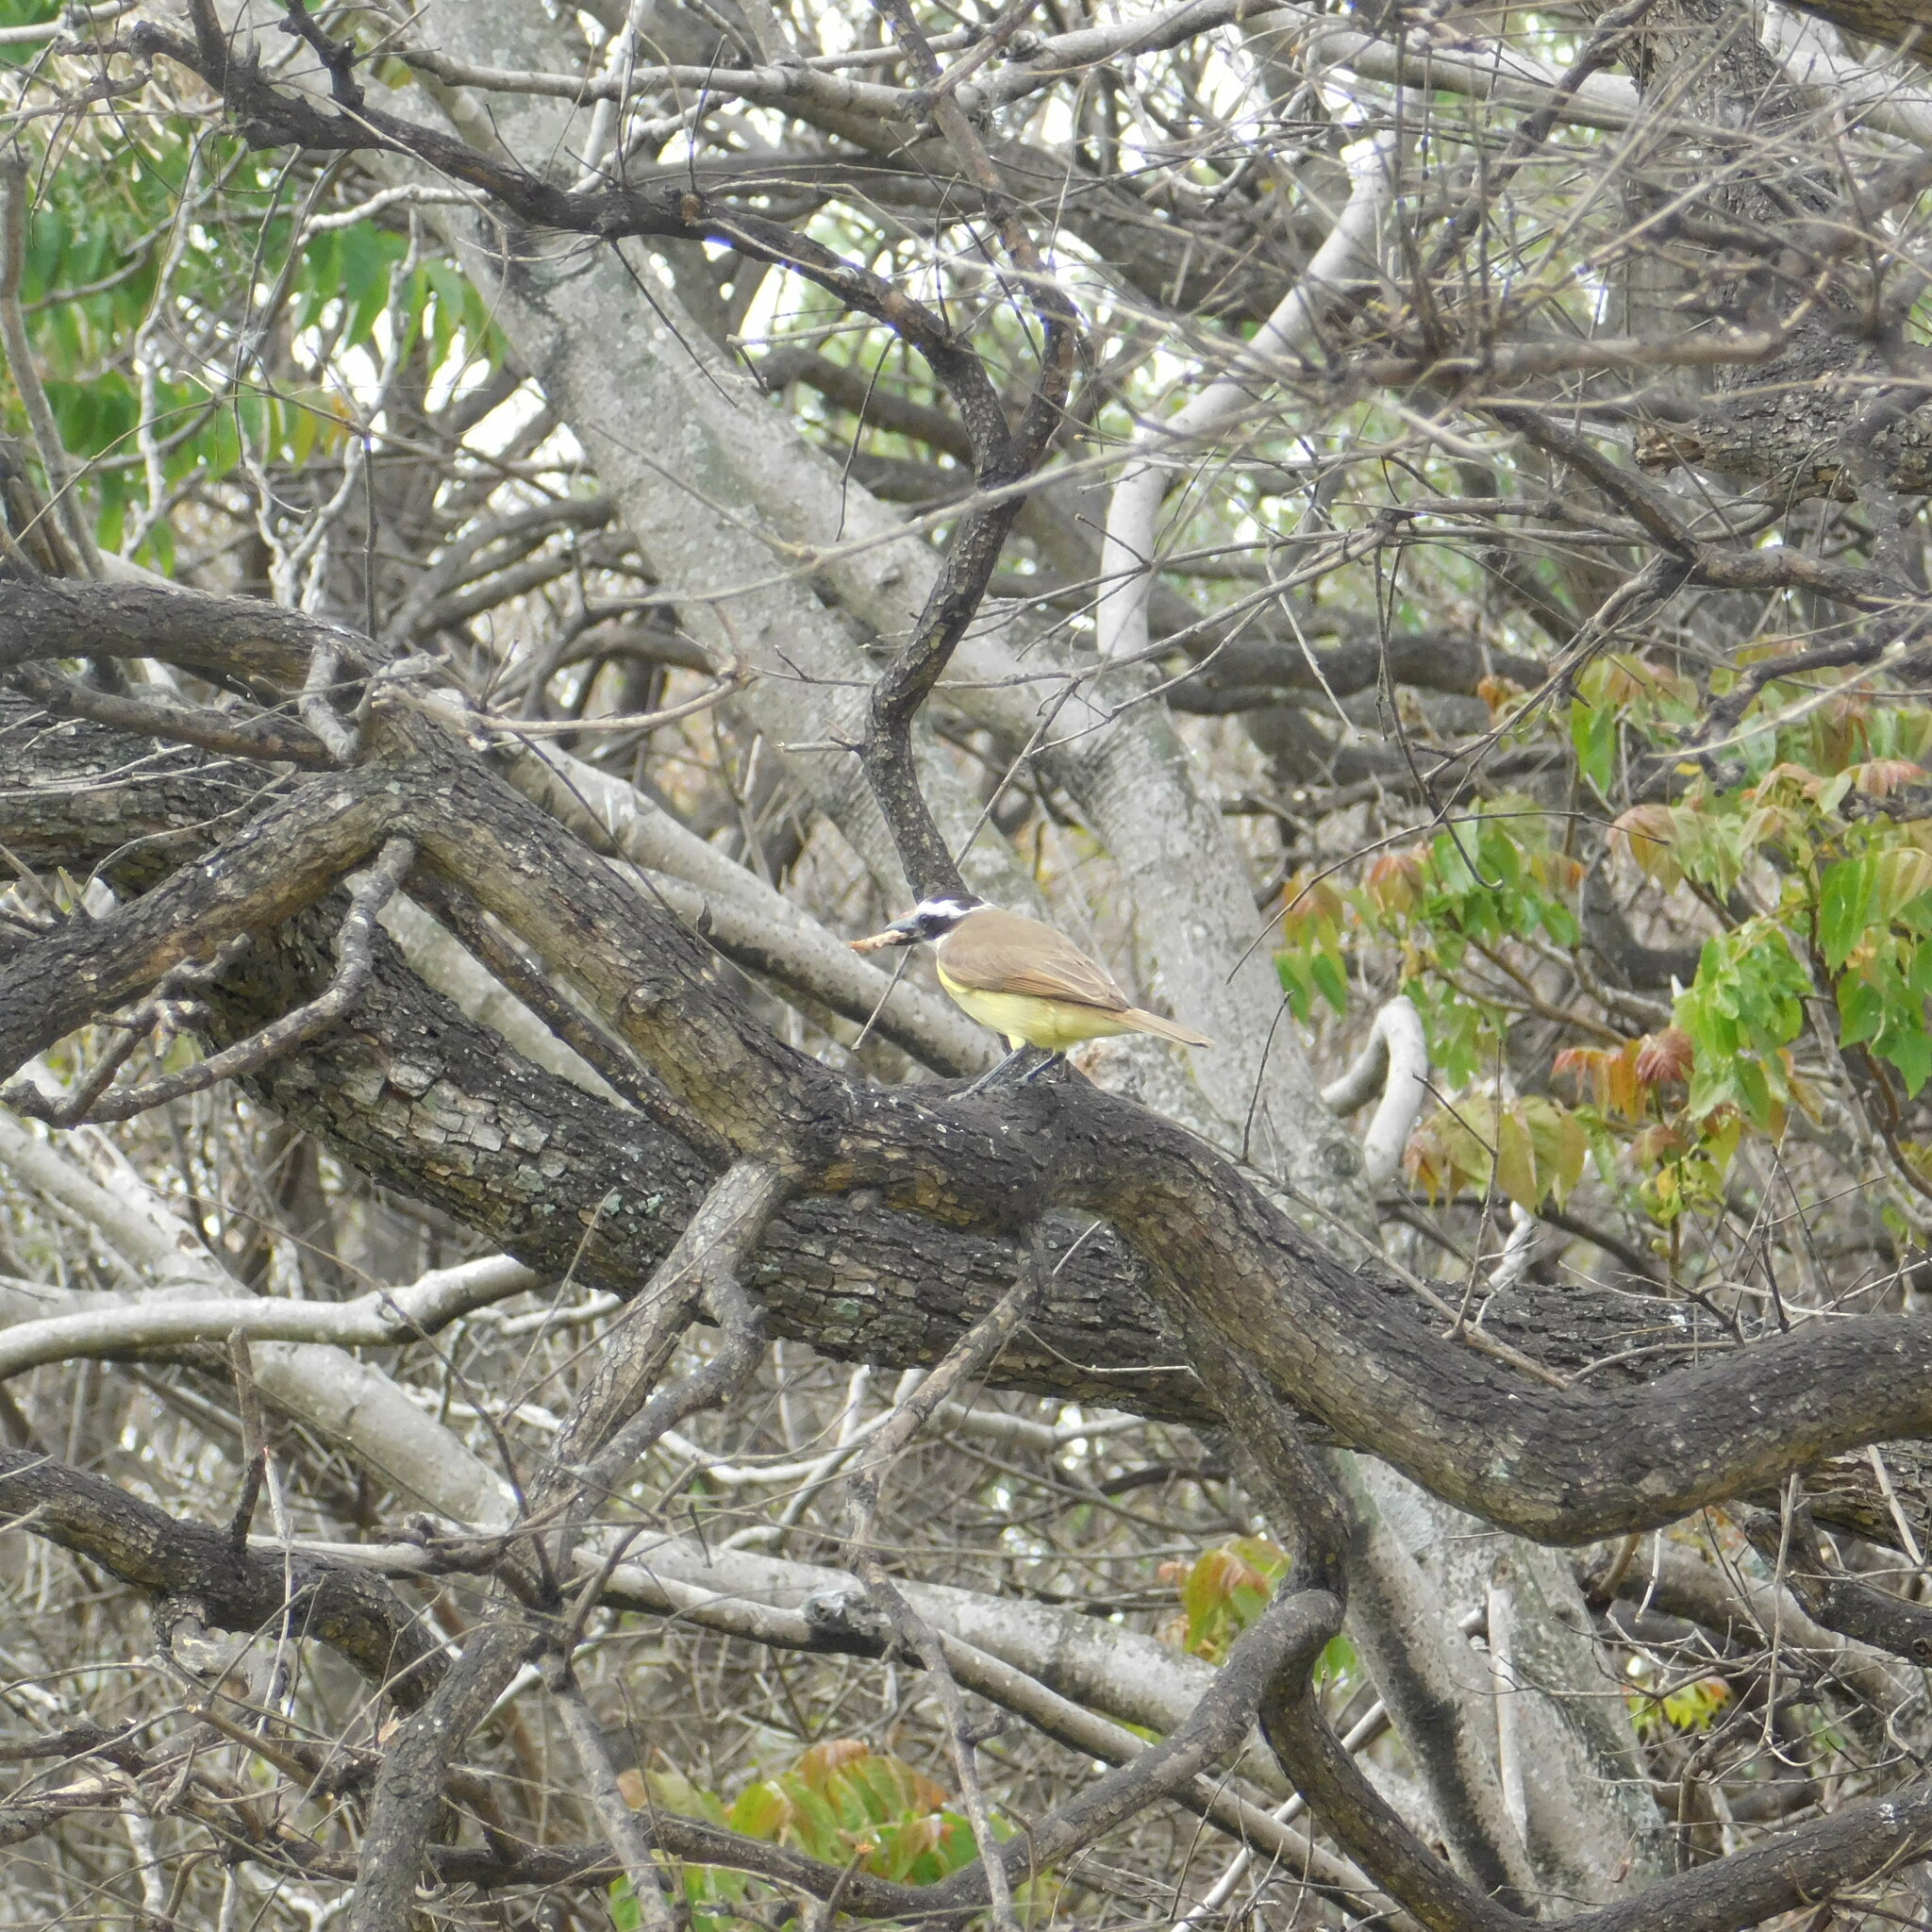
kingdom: Animalia
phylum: Chordata
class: Aves
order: Passeriformes
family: Tyrannidae
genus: Pitangus
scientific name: Pitangus sulphuratus
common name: Great kiskadee
